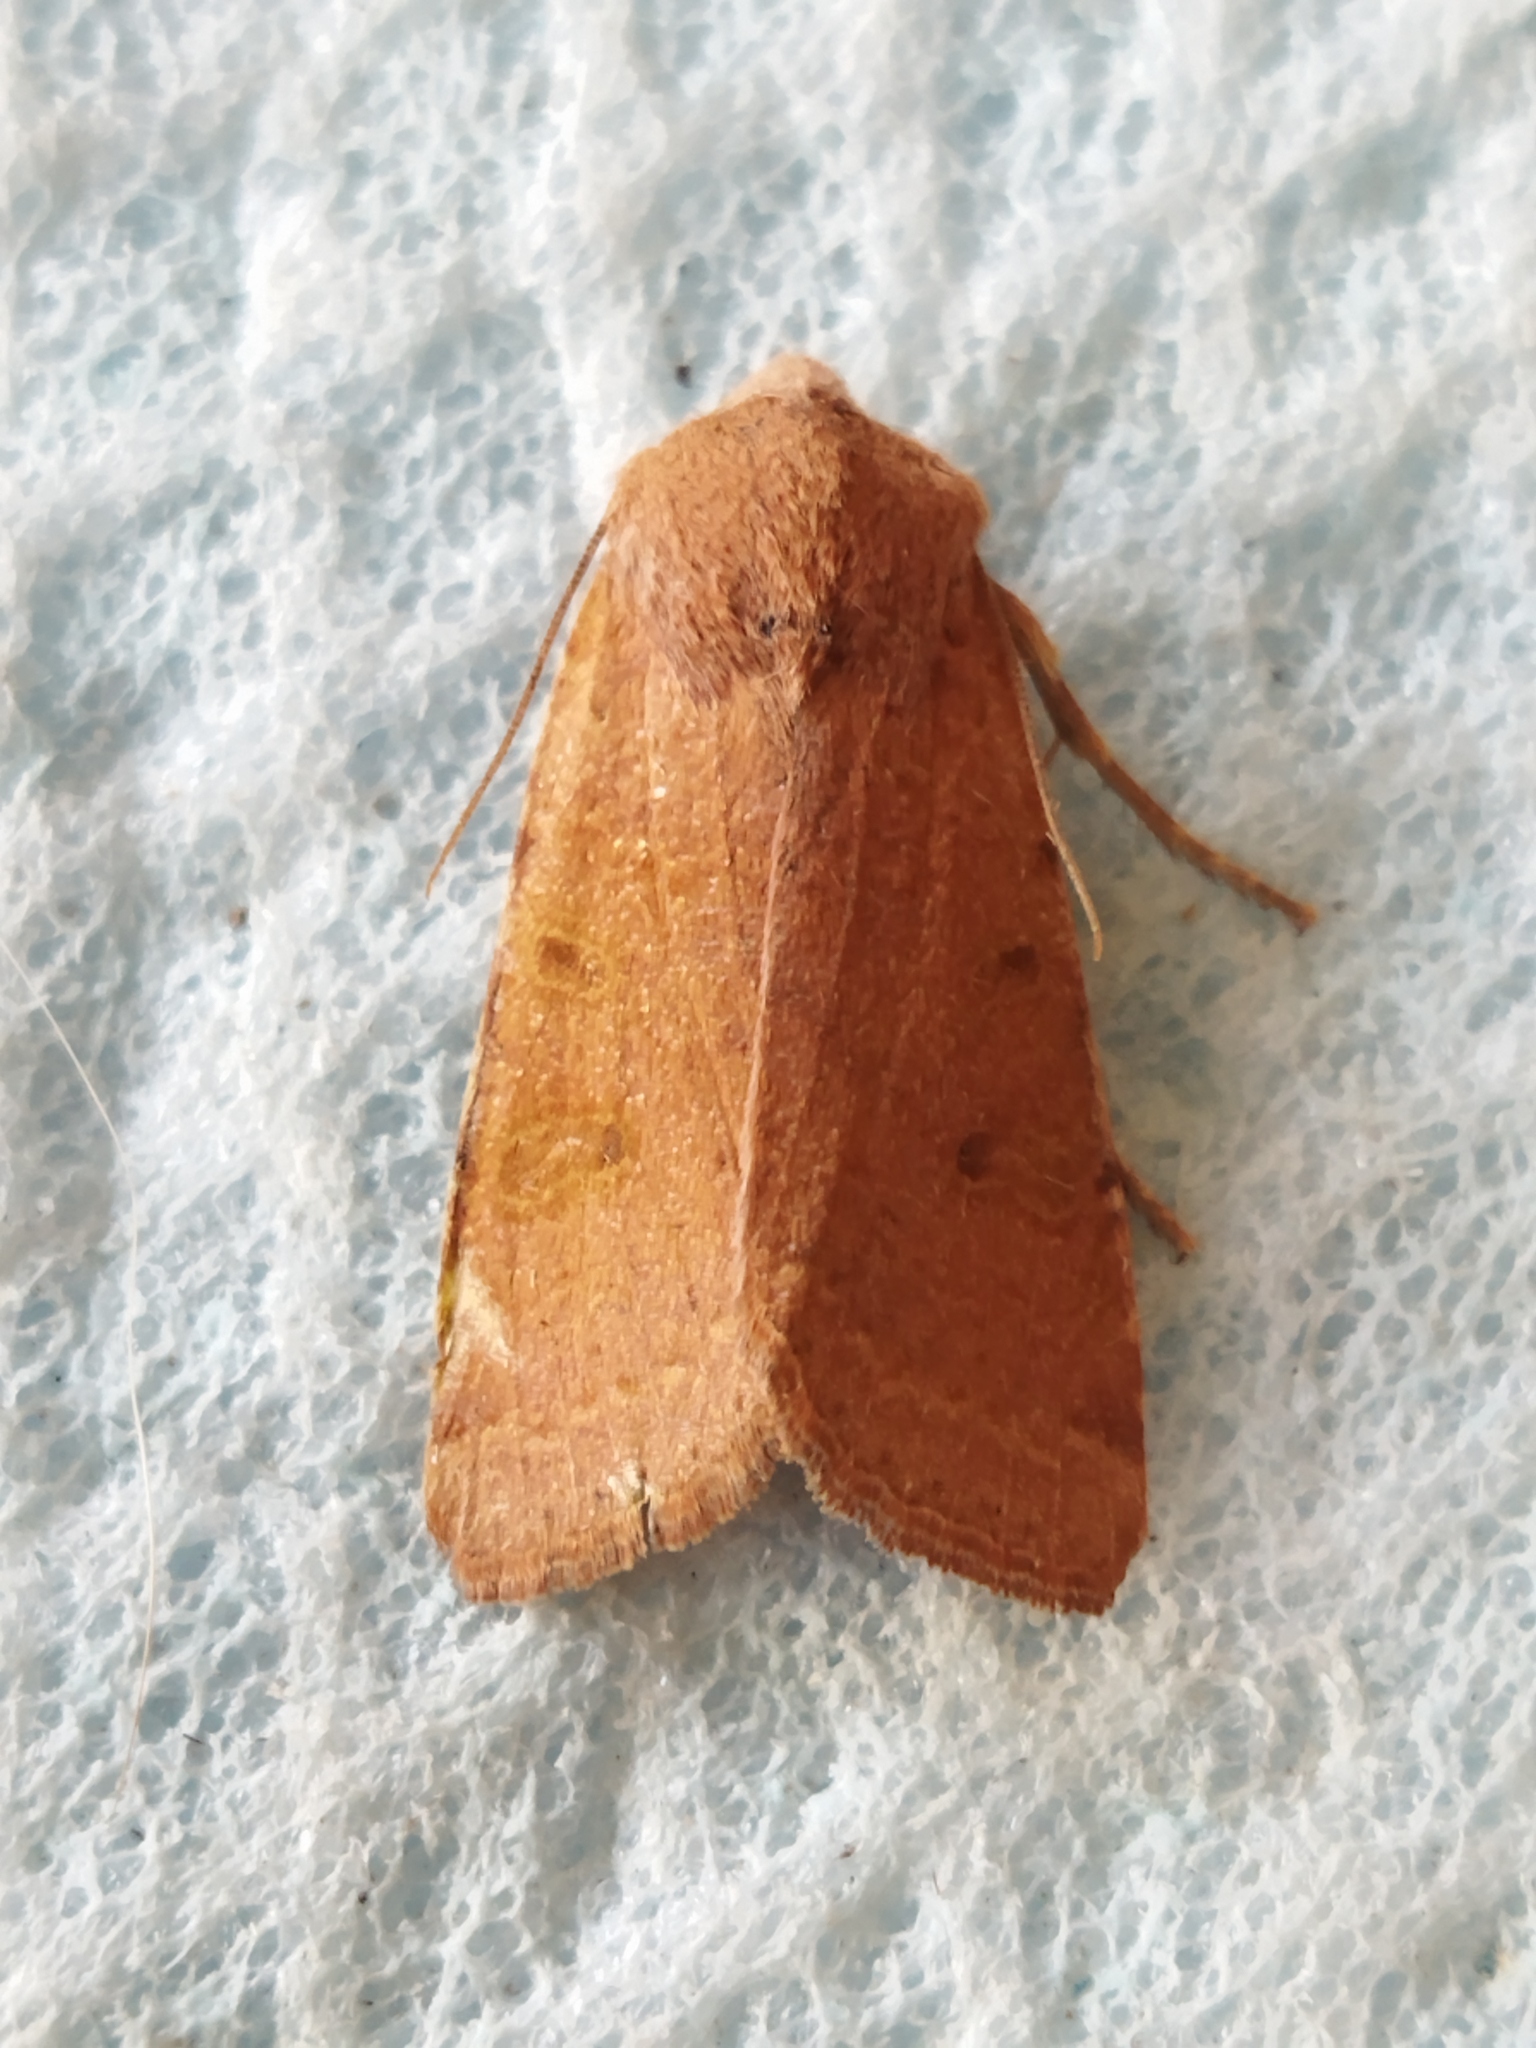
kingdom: Animalia
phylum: Arthropoda
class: Insecta
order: Lepidoptera
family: Noctuidae
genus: Agrochola
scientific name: Agrochola lychnidis
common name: Beaded chestnut
